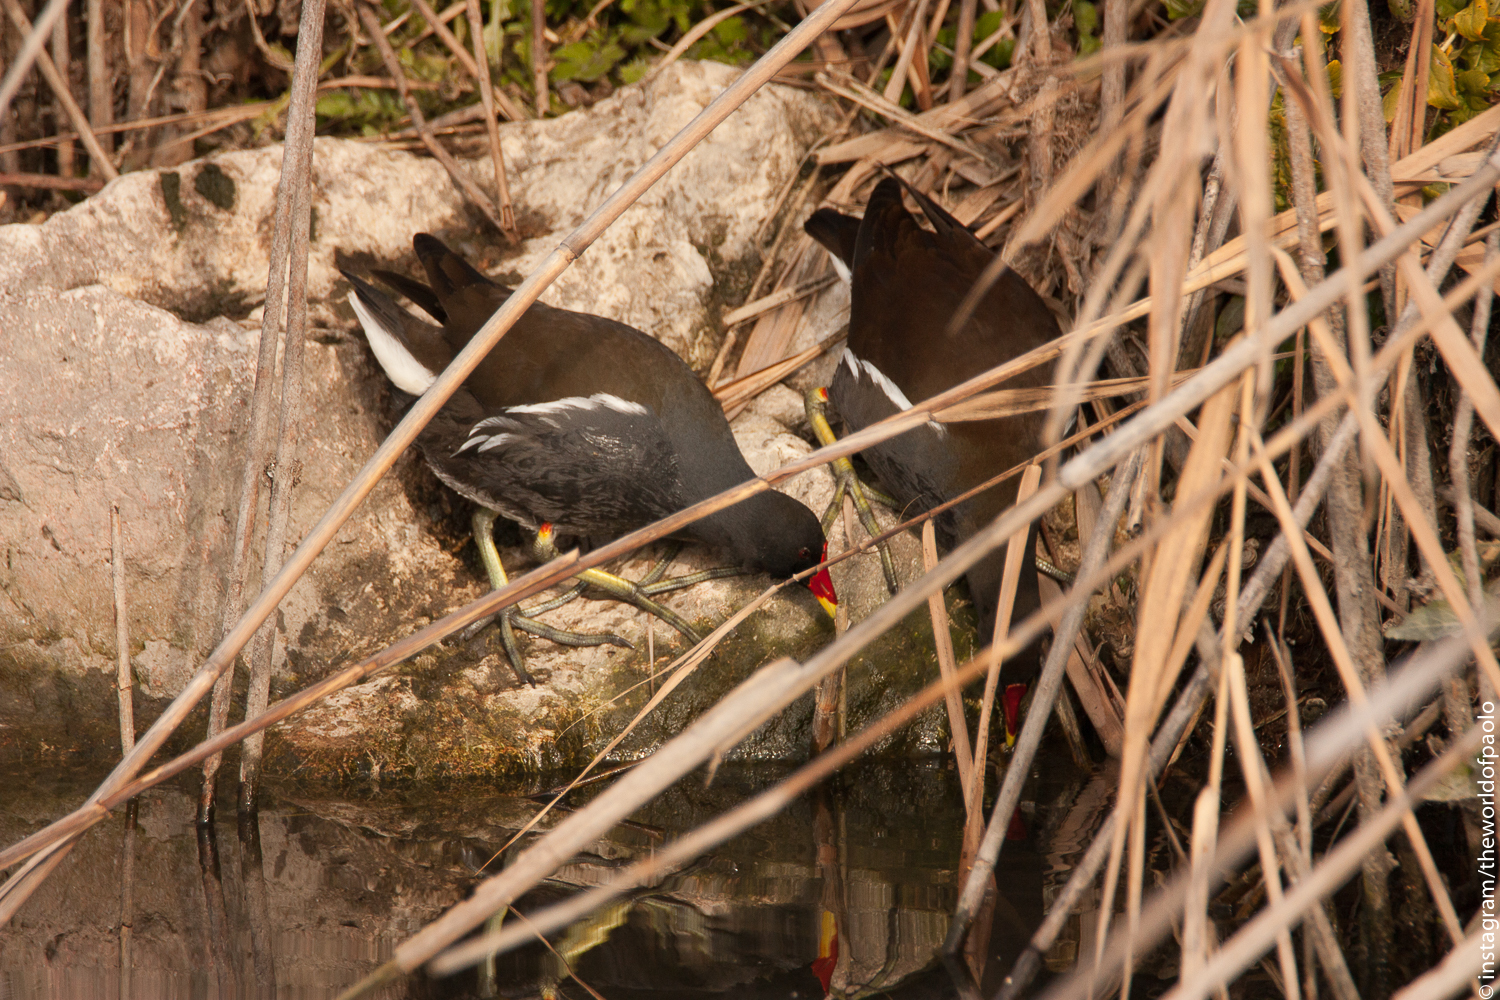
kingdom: Animalia
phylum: Chordata
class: Aves
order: Gruiformes
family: Rallidae
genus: Gallinula
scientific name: Gallinula chloropus
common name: Common moorhen
